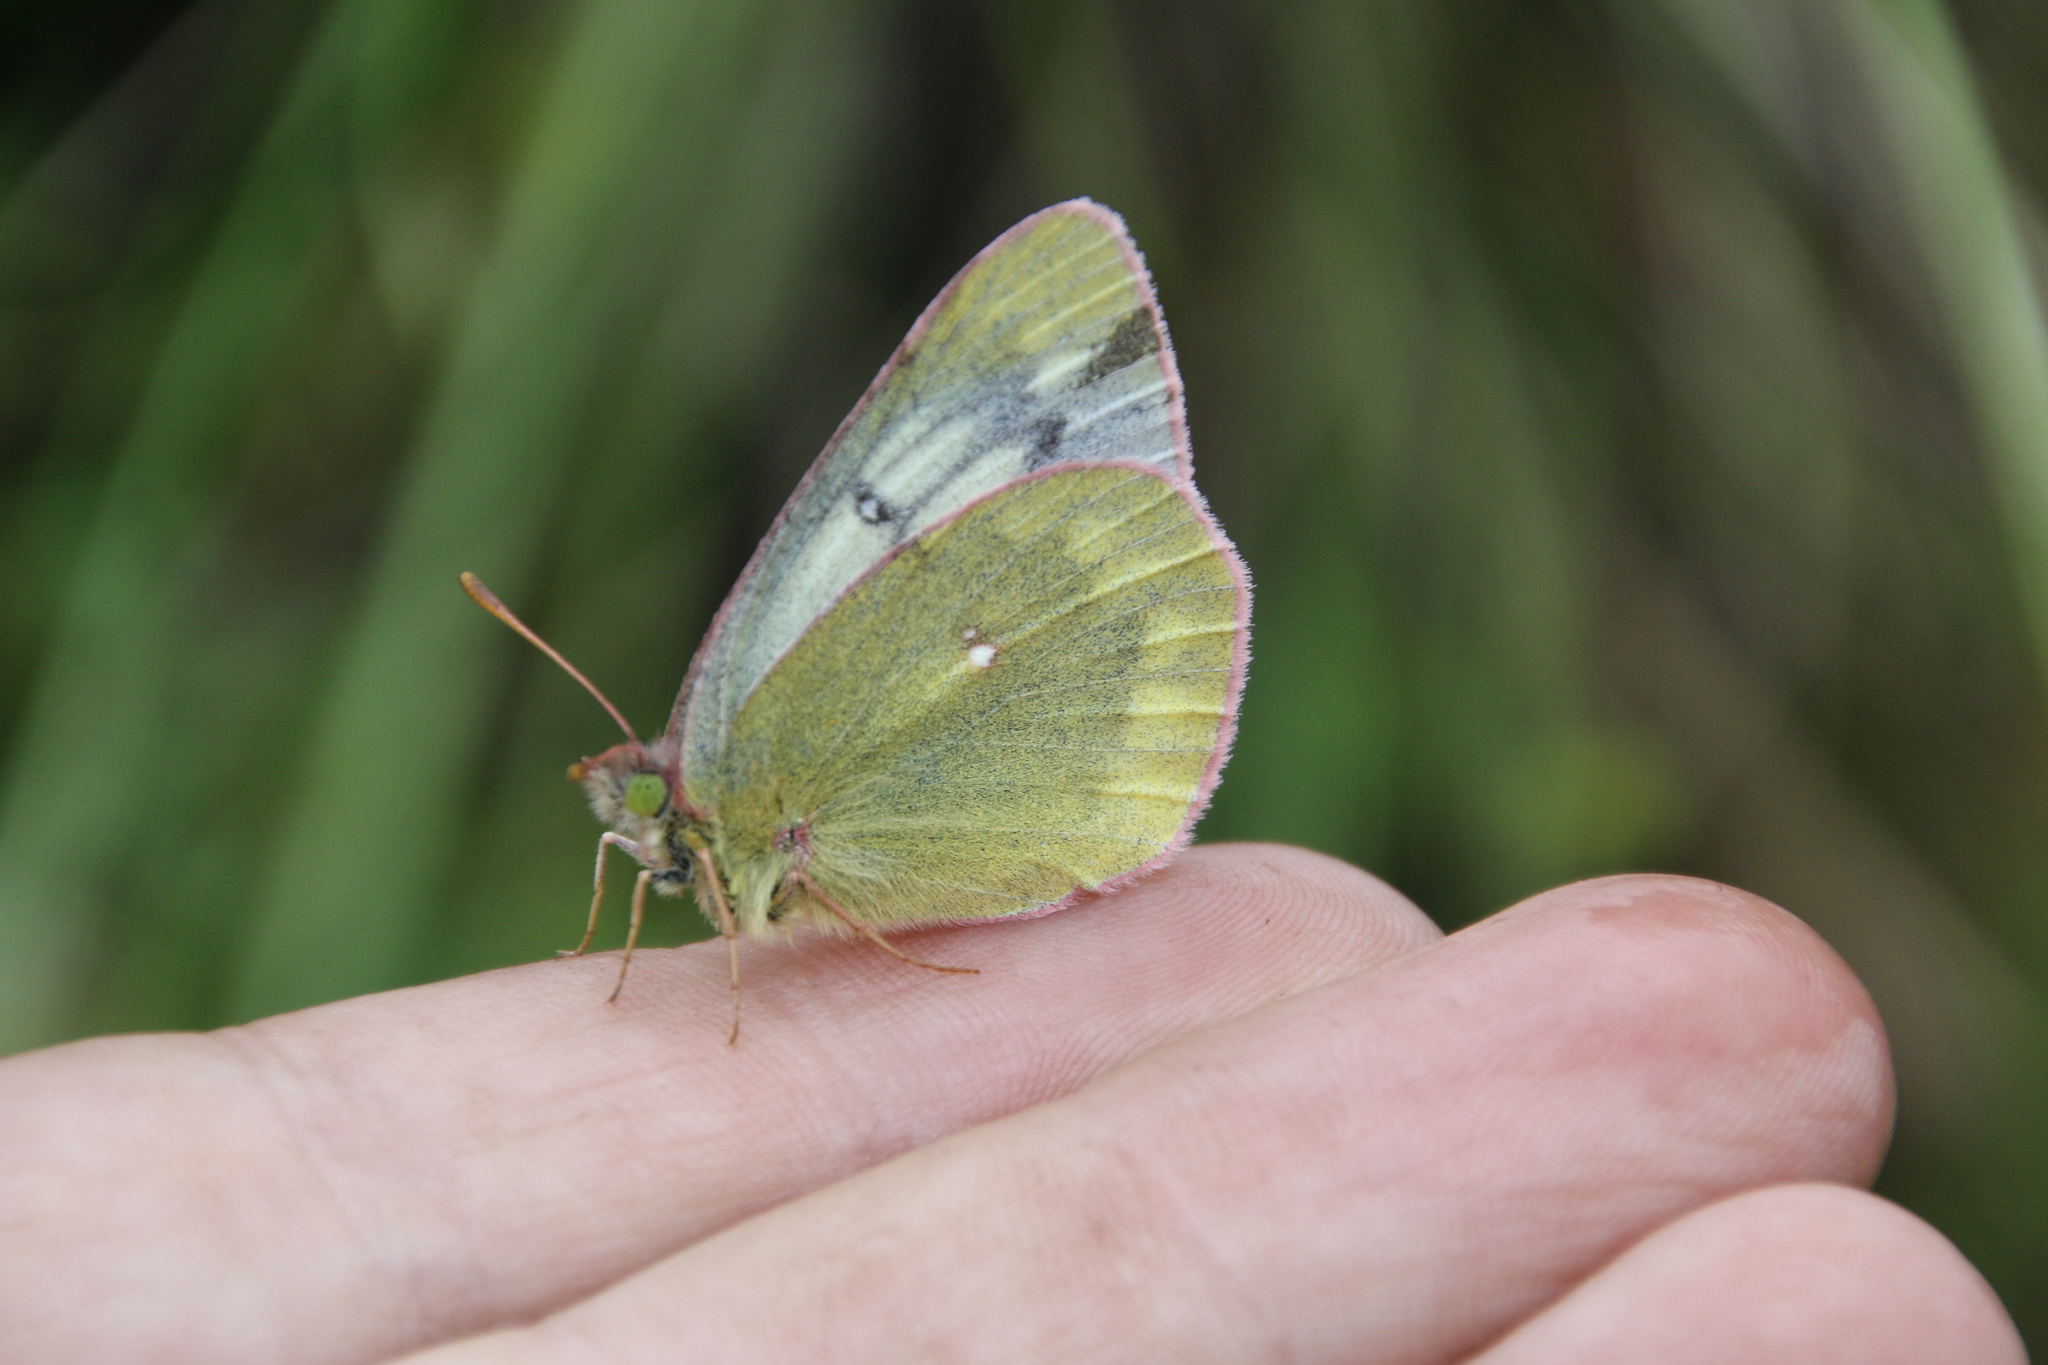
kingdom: Animalia
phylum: Arthropoda
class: Insecta
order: Lepidoptera
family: Pieridae
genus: Colias
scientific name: Colias tyche
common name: Pale arctic clouded yellow
